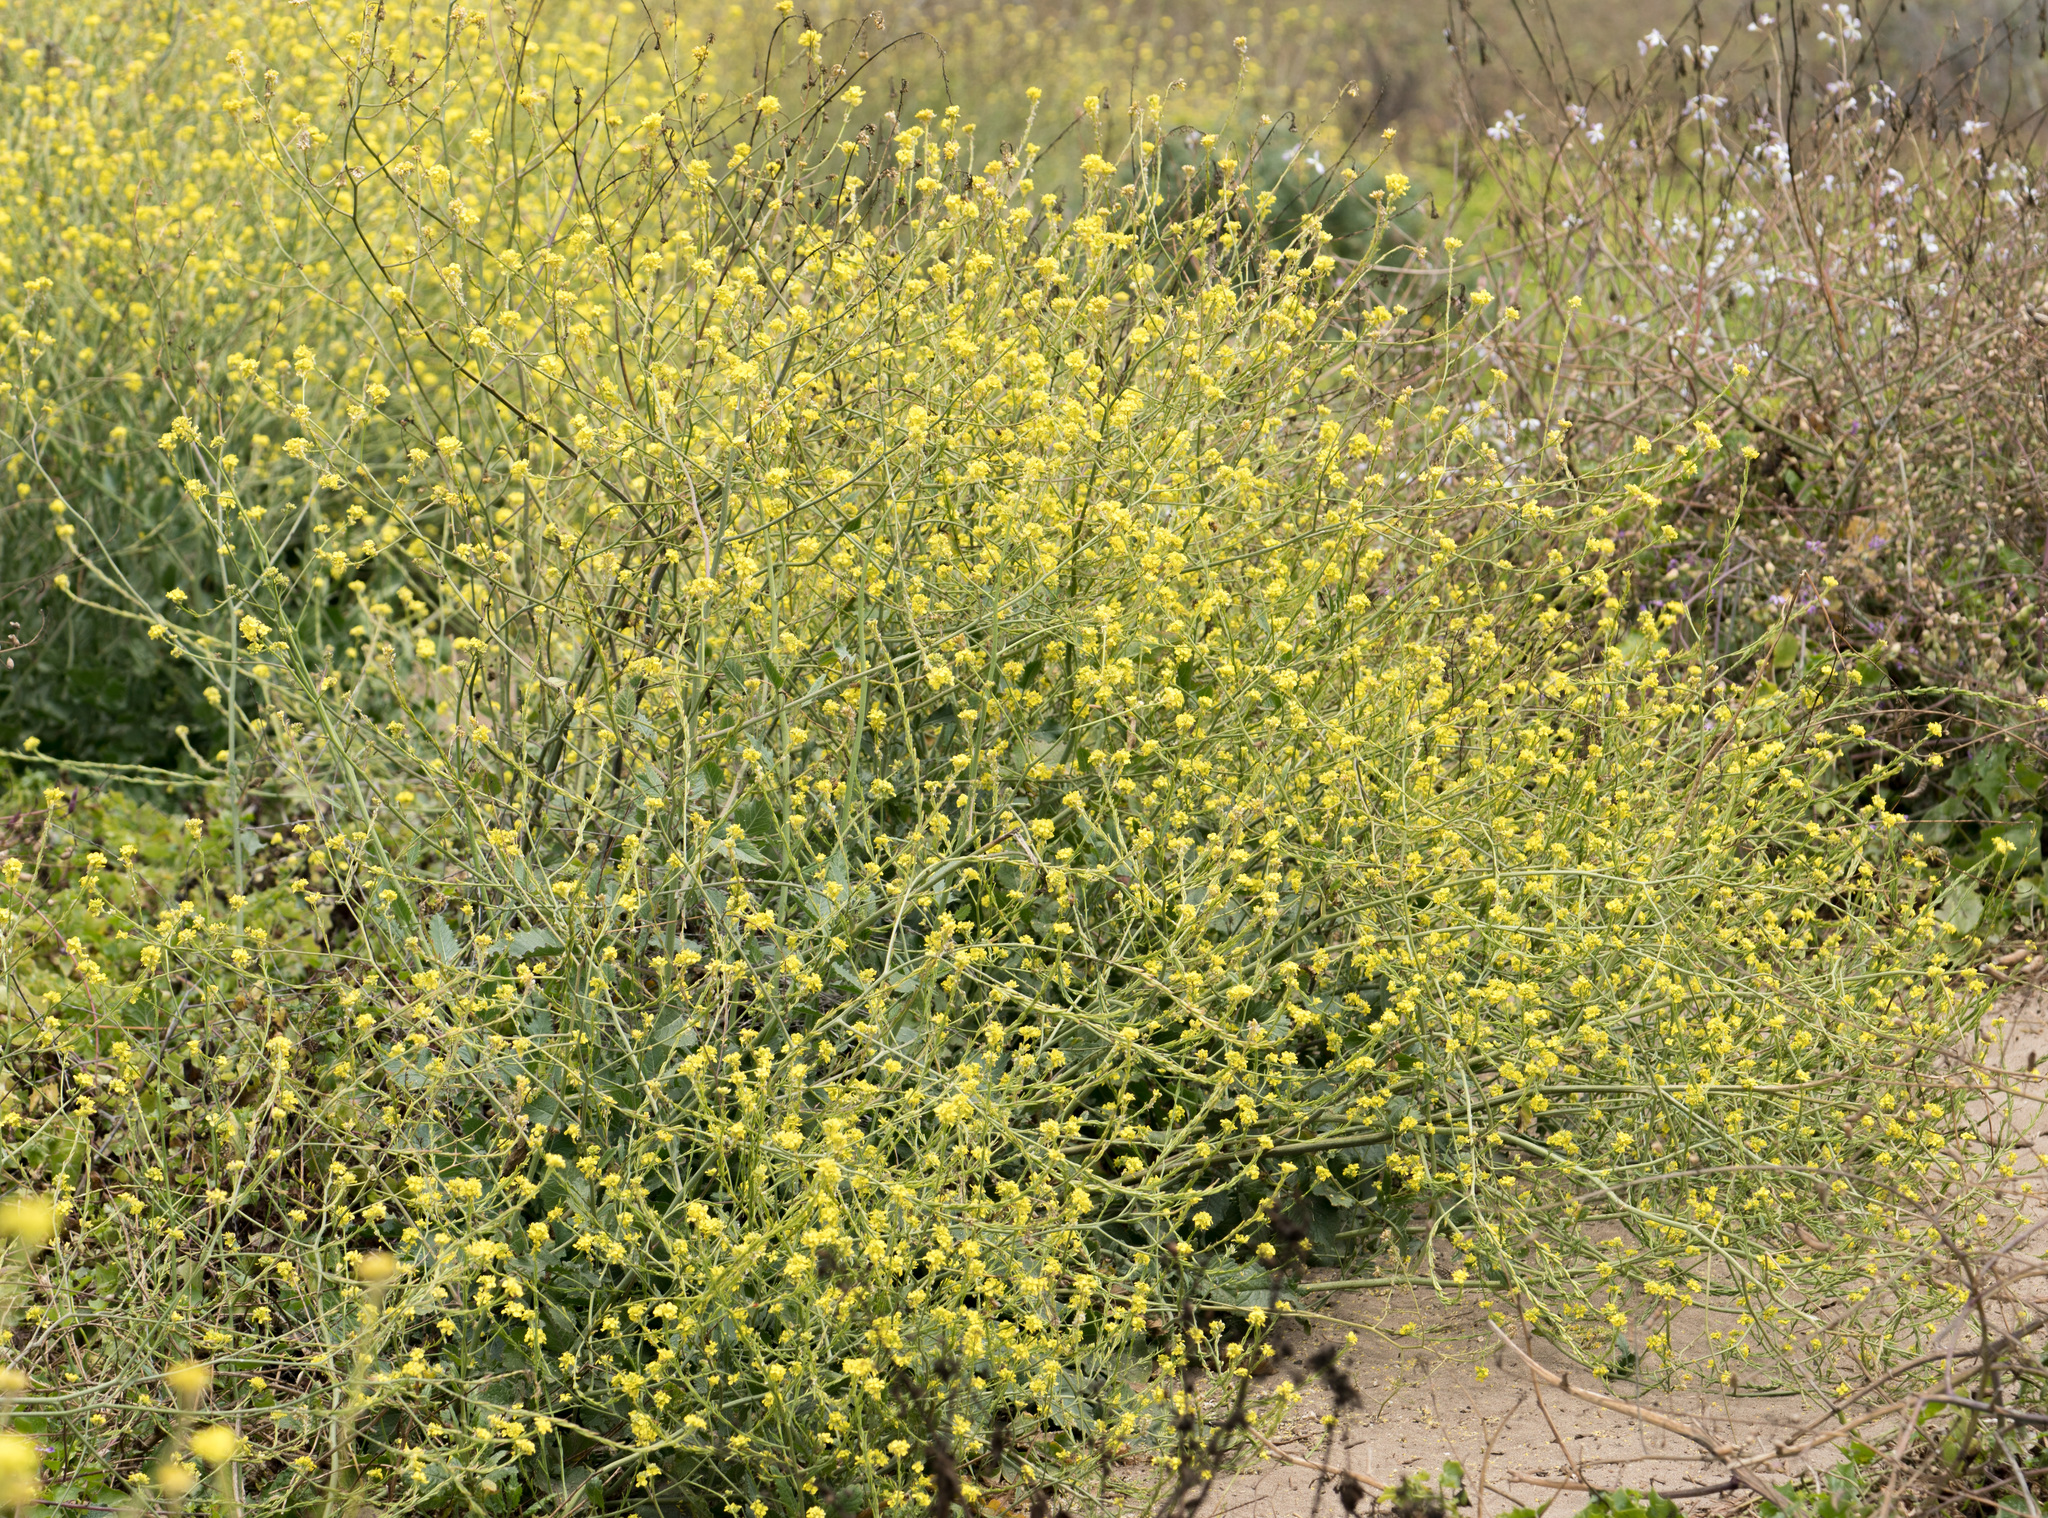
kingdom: Plantae
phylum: Tracheophyta
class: Magnoliopsida
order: Brassicales
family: Brassicaceae
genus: Hirschfeldia
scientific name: Hirschfeldia incana
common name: Hoary mustard
